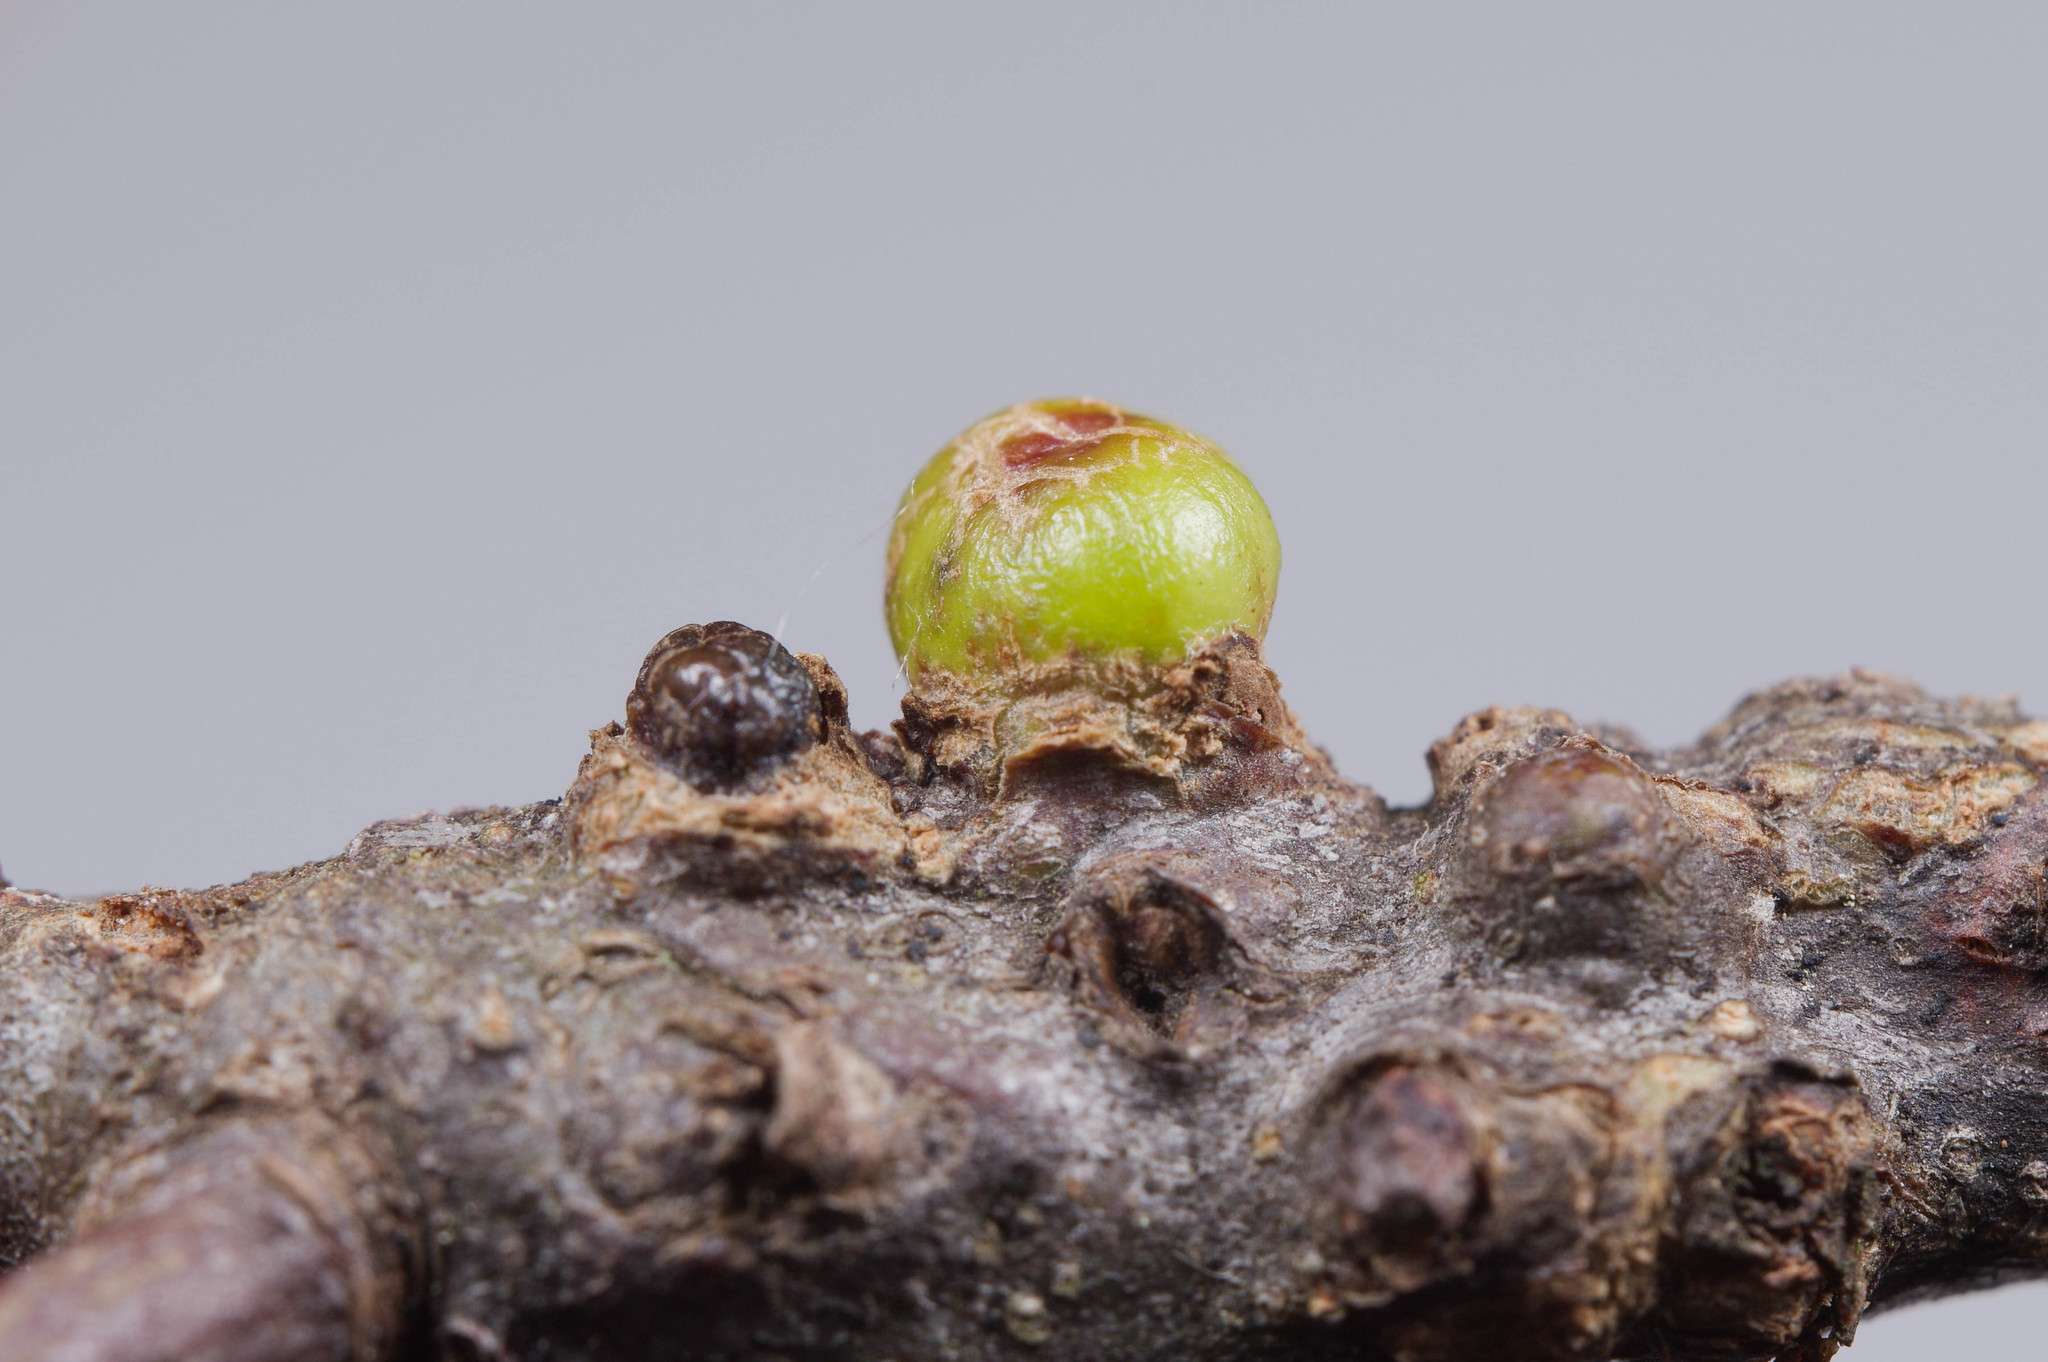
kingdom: Animalia
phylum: Arthropoda
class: Insecta
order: Hymenoptera
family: Cynipidae
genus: Callirhytis
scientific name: Callirhytis
